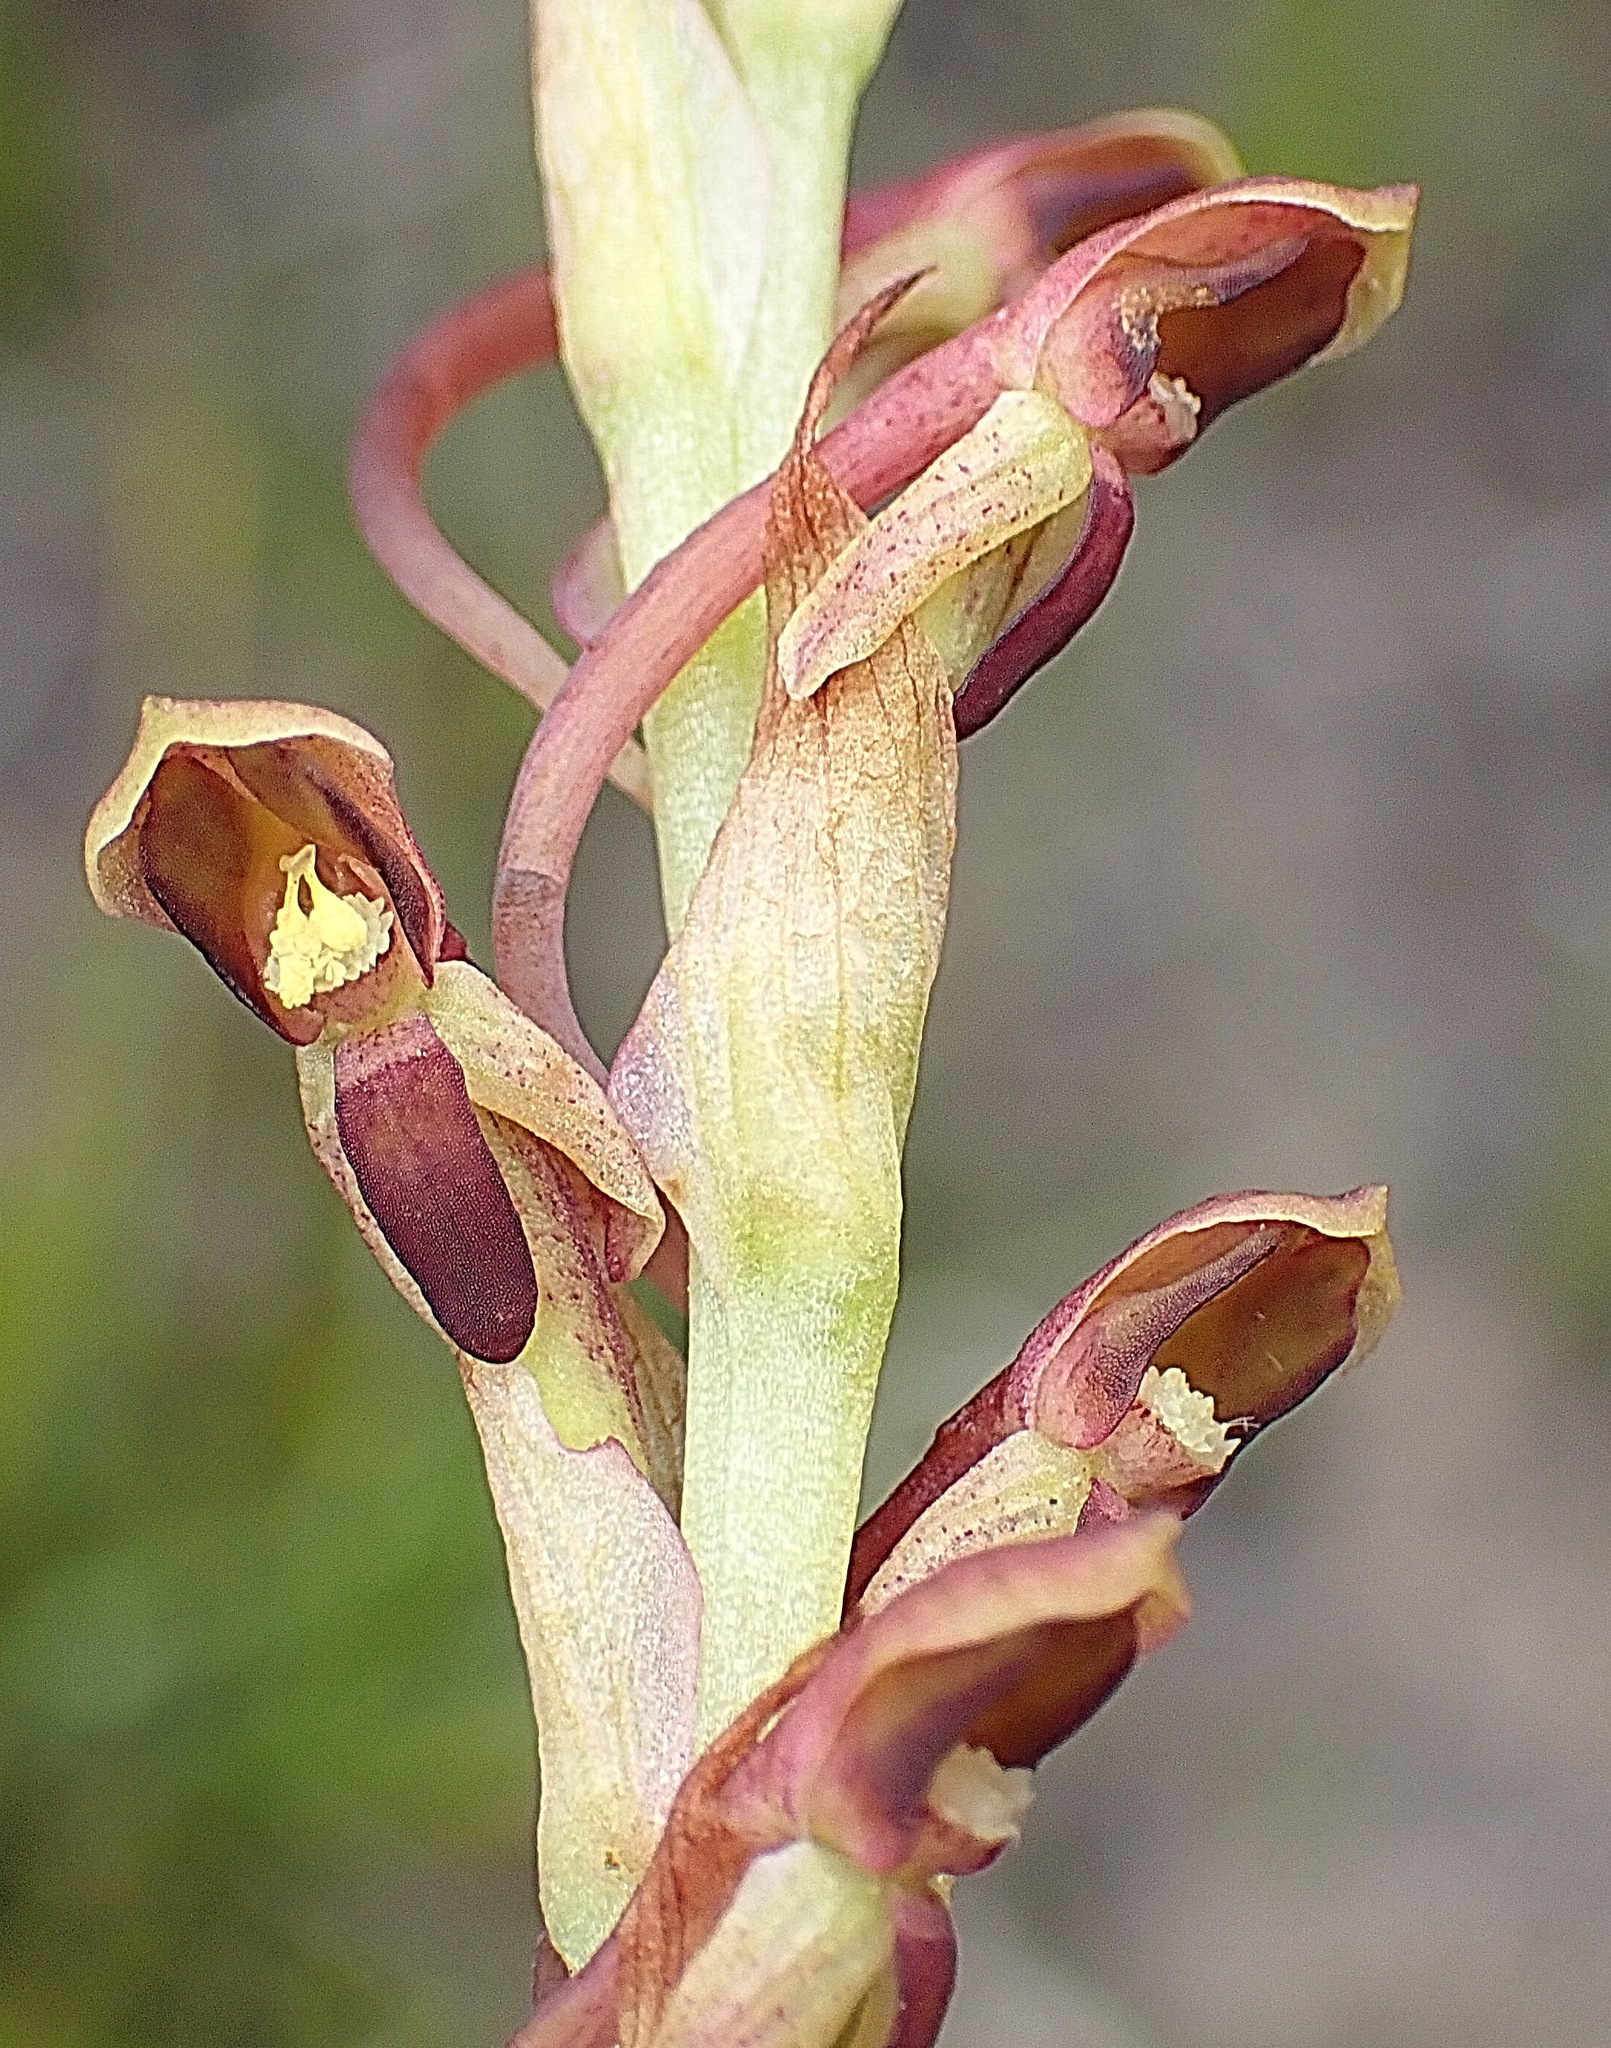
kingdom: Plantae
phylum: Tracheophyta
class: Liliopsida
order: Asparagales
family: Orchidaceae
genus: Disa
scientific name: Disa reticulata
